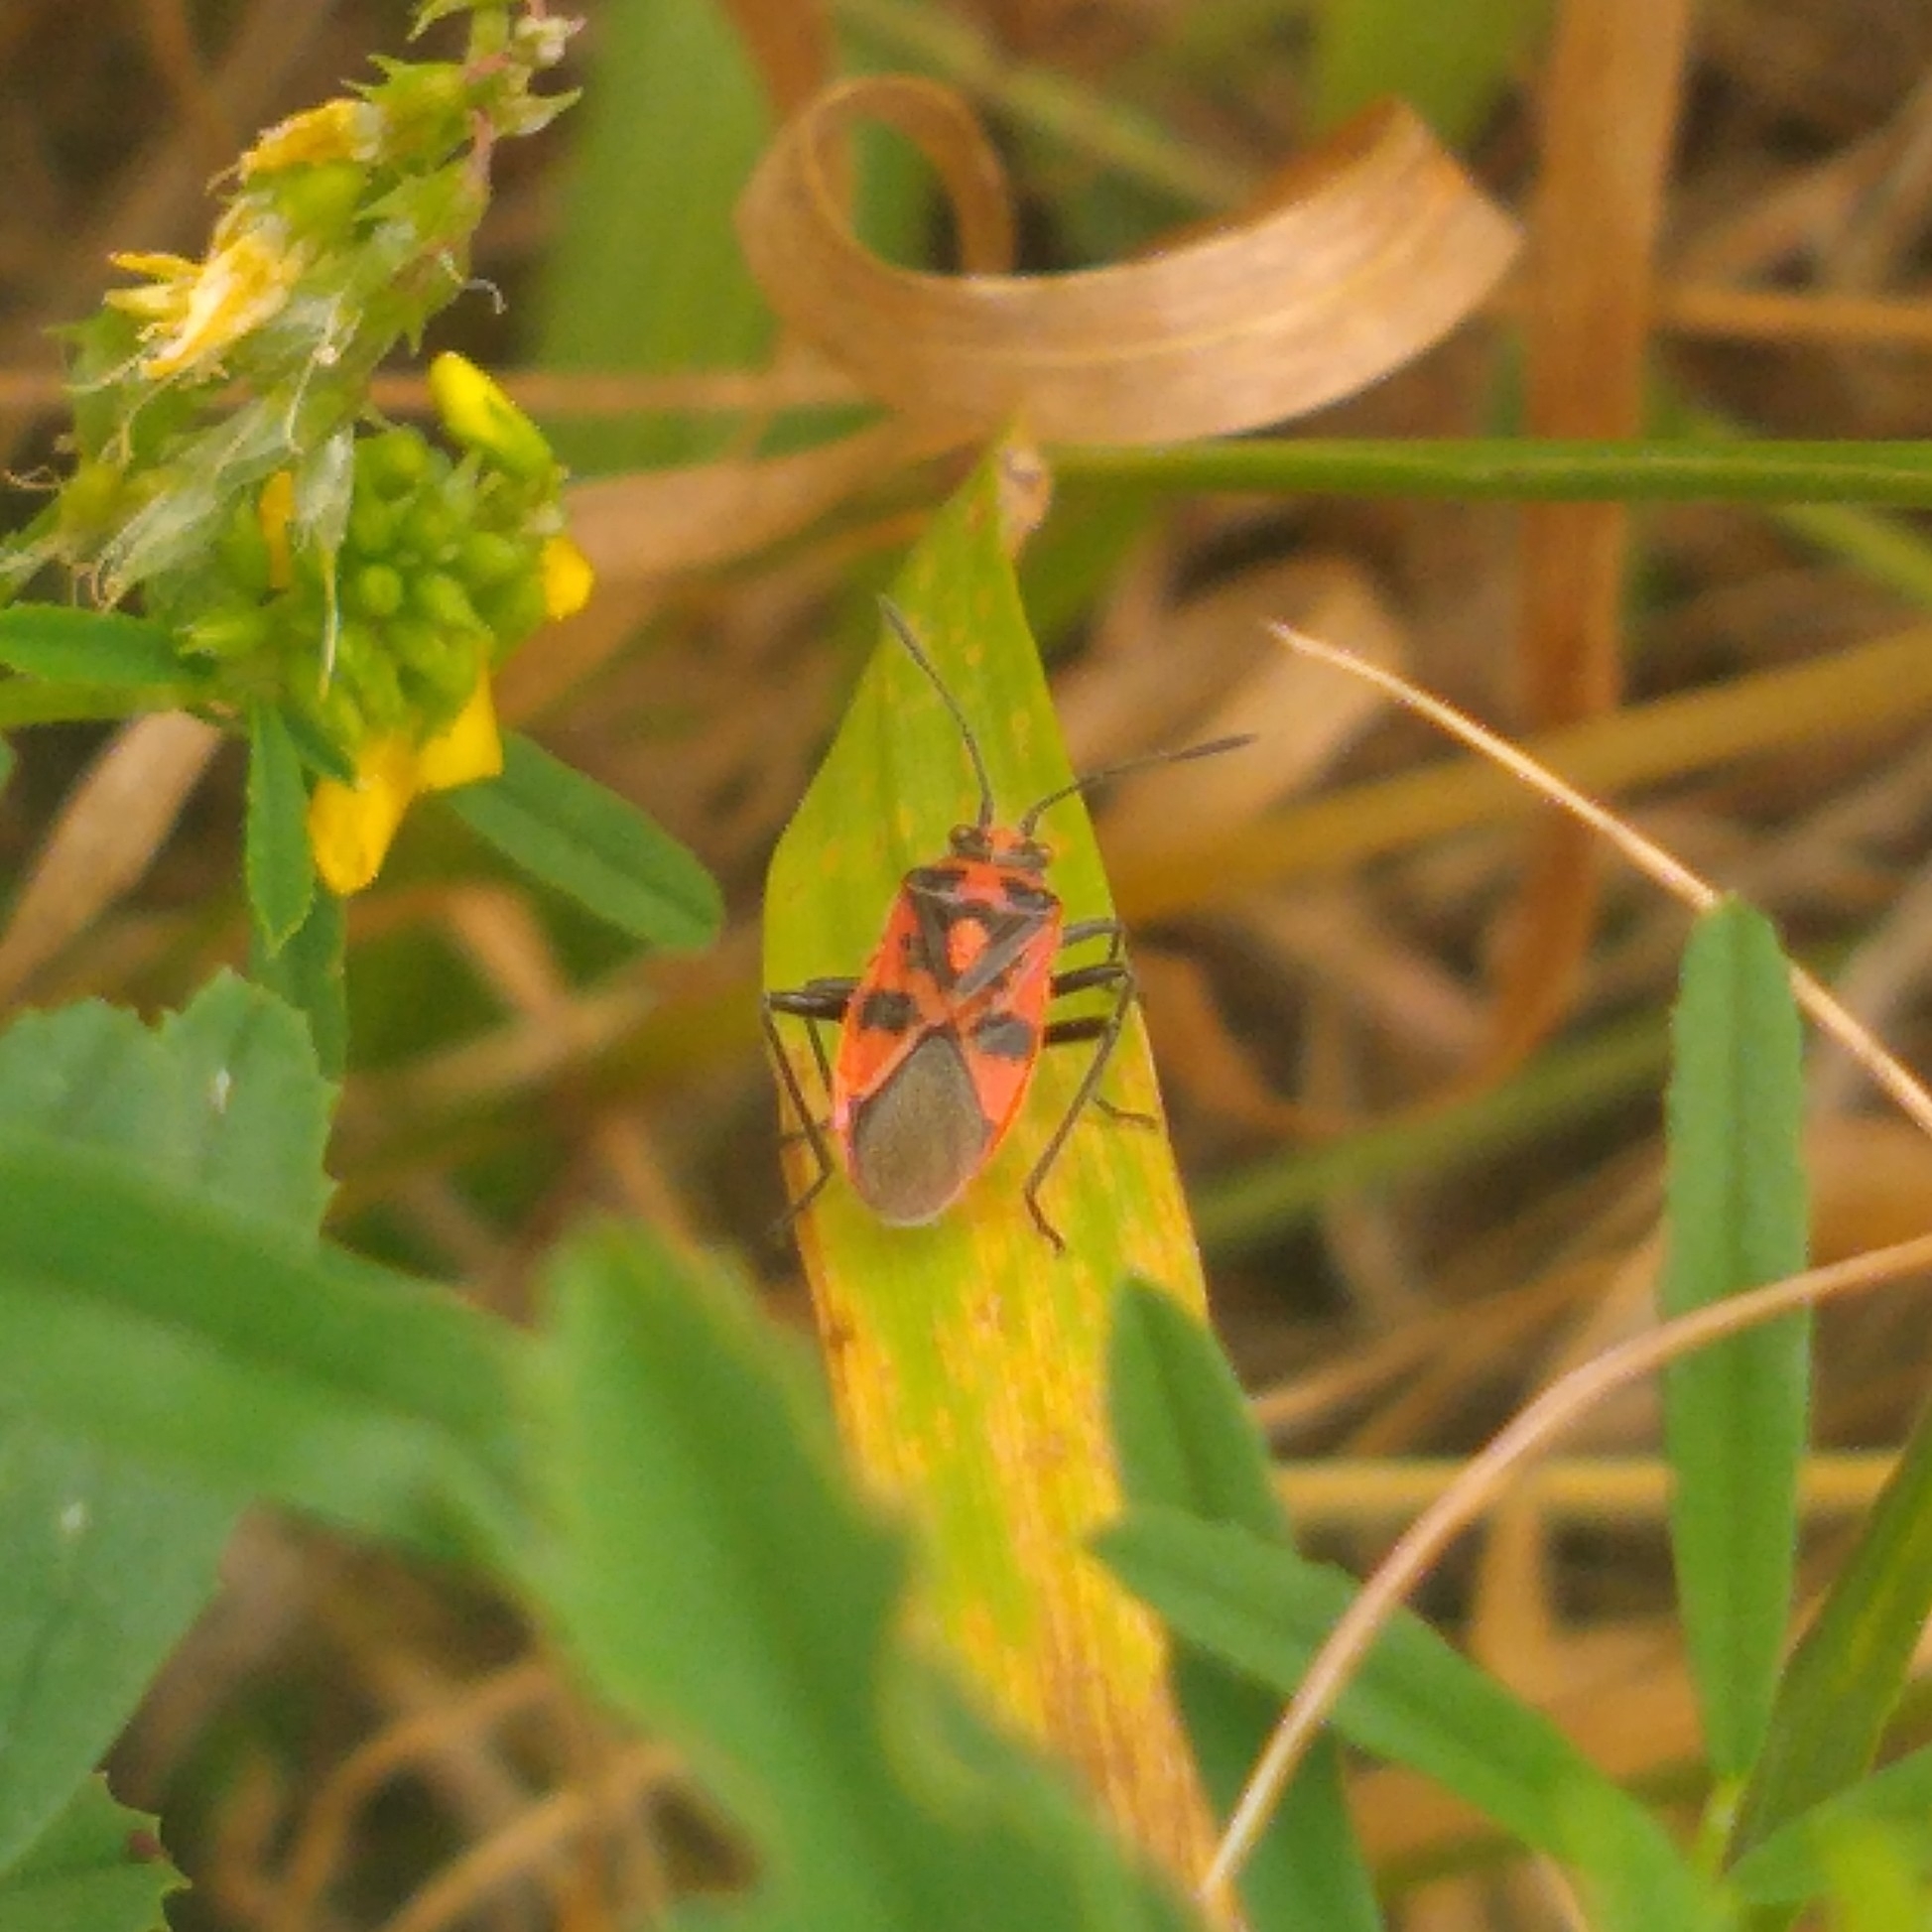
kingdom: Animalia
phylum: Arthropoda
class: Insecta
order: Hemiptera
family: Rhopalidae
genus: Corizus
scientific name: Corizus hyoscyami
